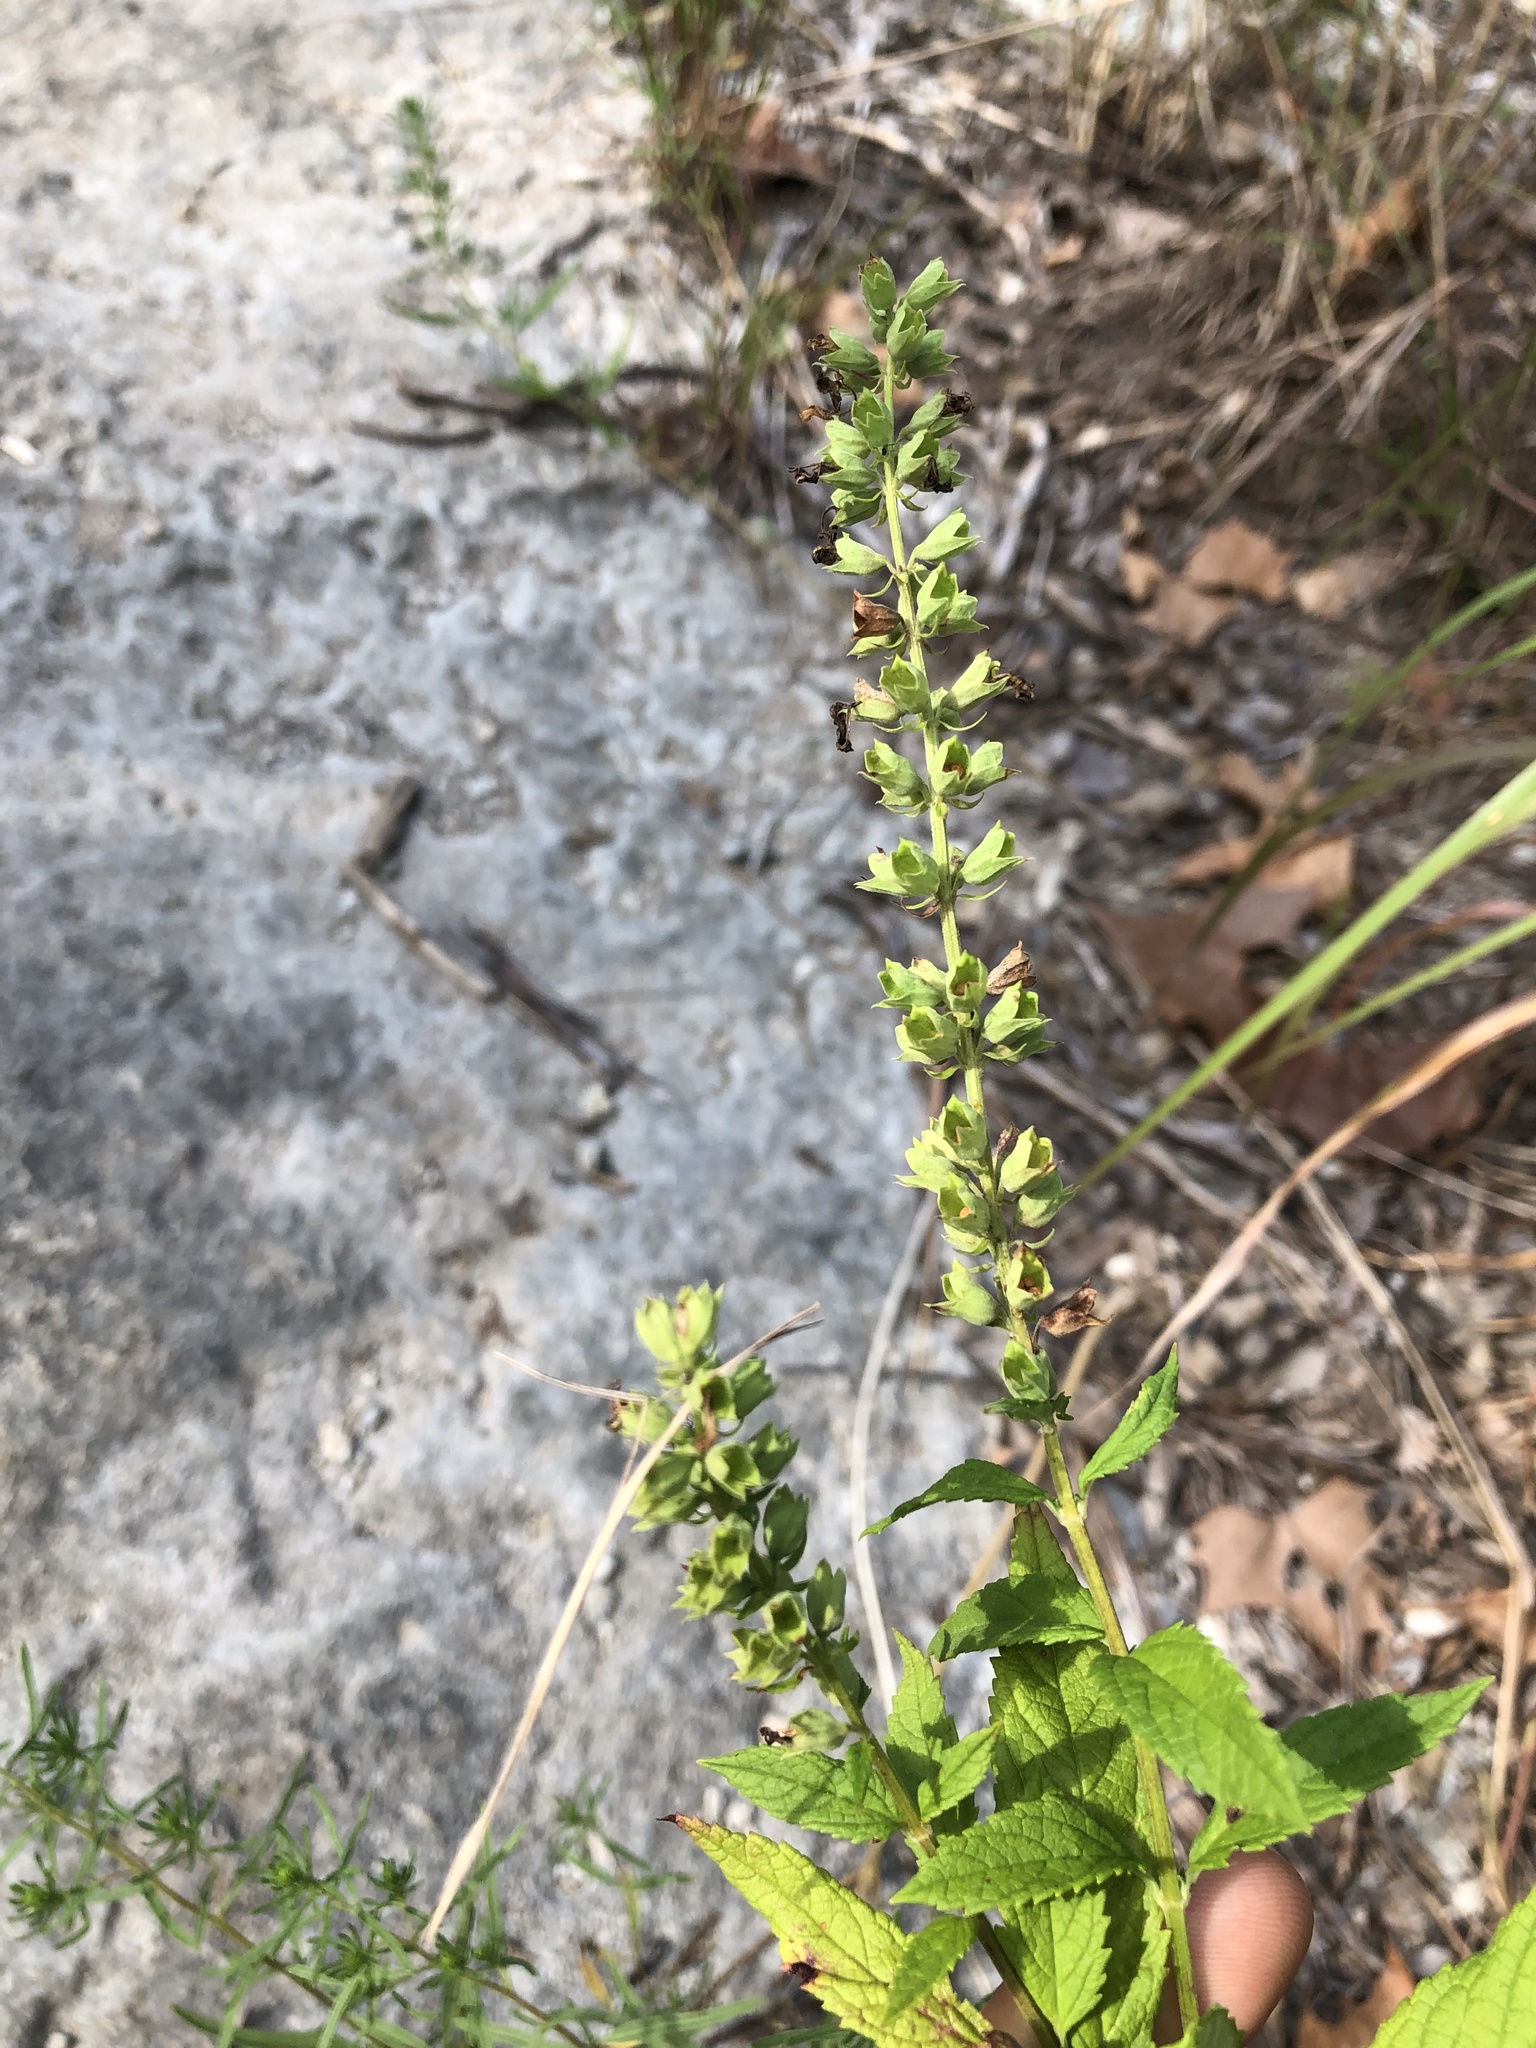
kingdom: Plantae
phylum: Tracheophyta
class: Magnoliopsida
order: Lamiales
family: Lamiaceae
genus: Teucrium
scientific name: Teucrium canadense
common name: American germander
